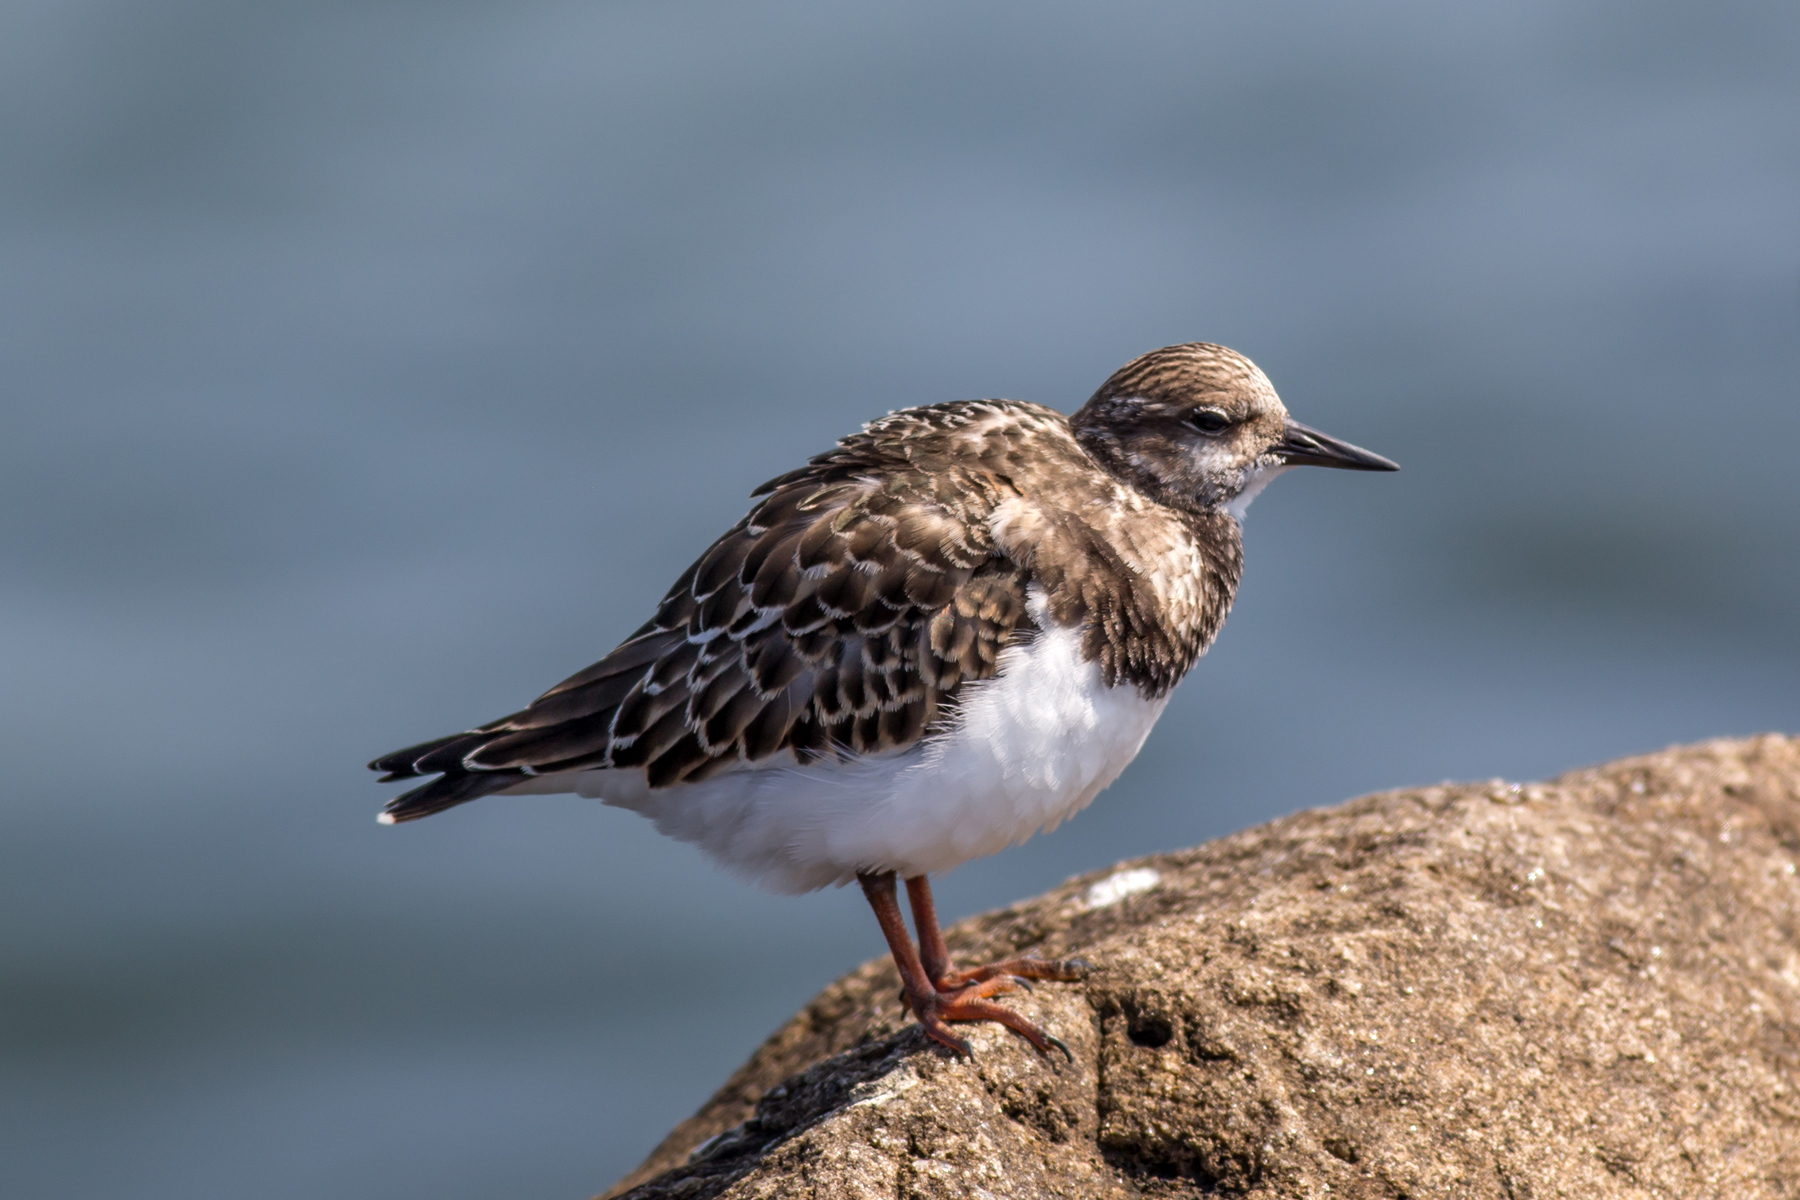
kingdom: Animalia
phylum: Chordata
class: Aves
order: Charadriiformes
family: Scolopacidae
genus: Arenaria
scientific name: Arenaria interpres
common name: Ruddy turnstone
